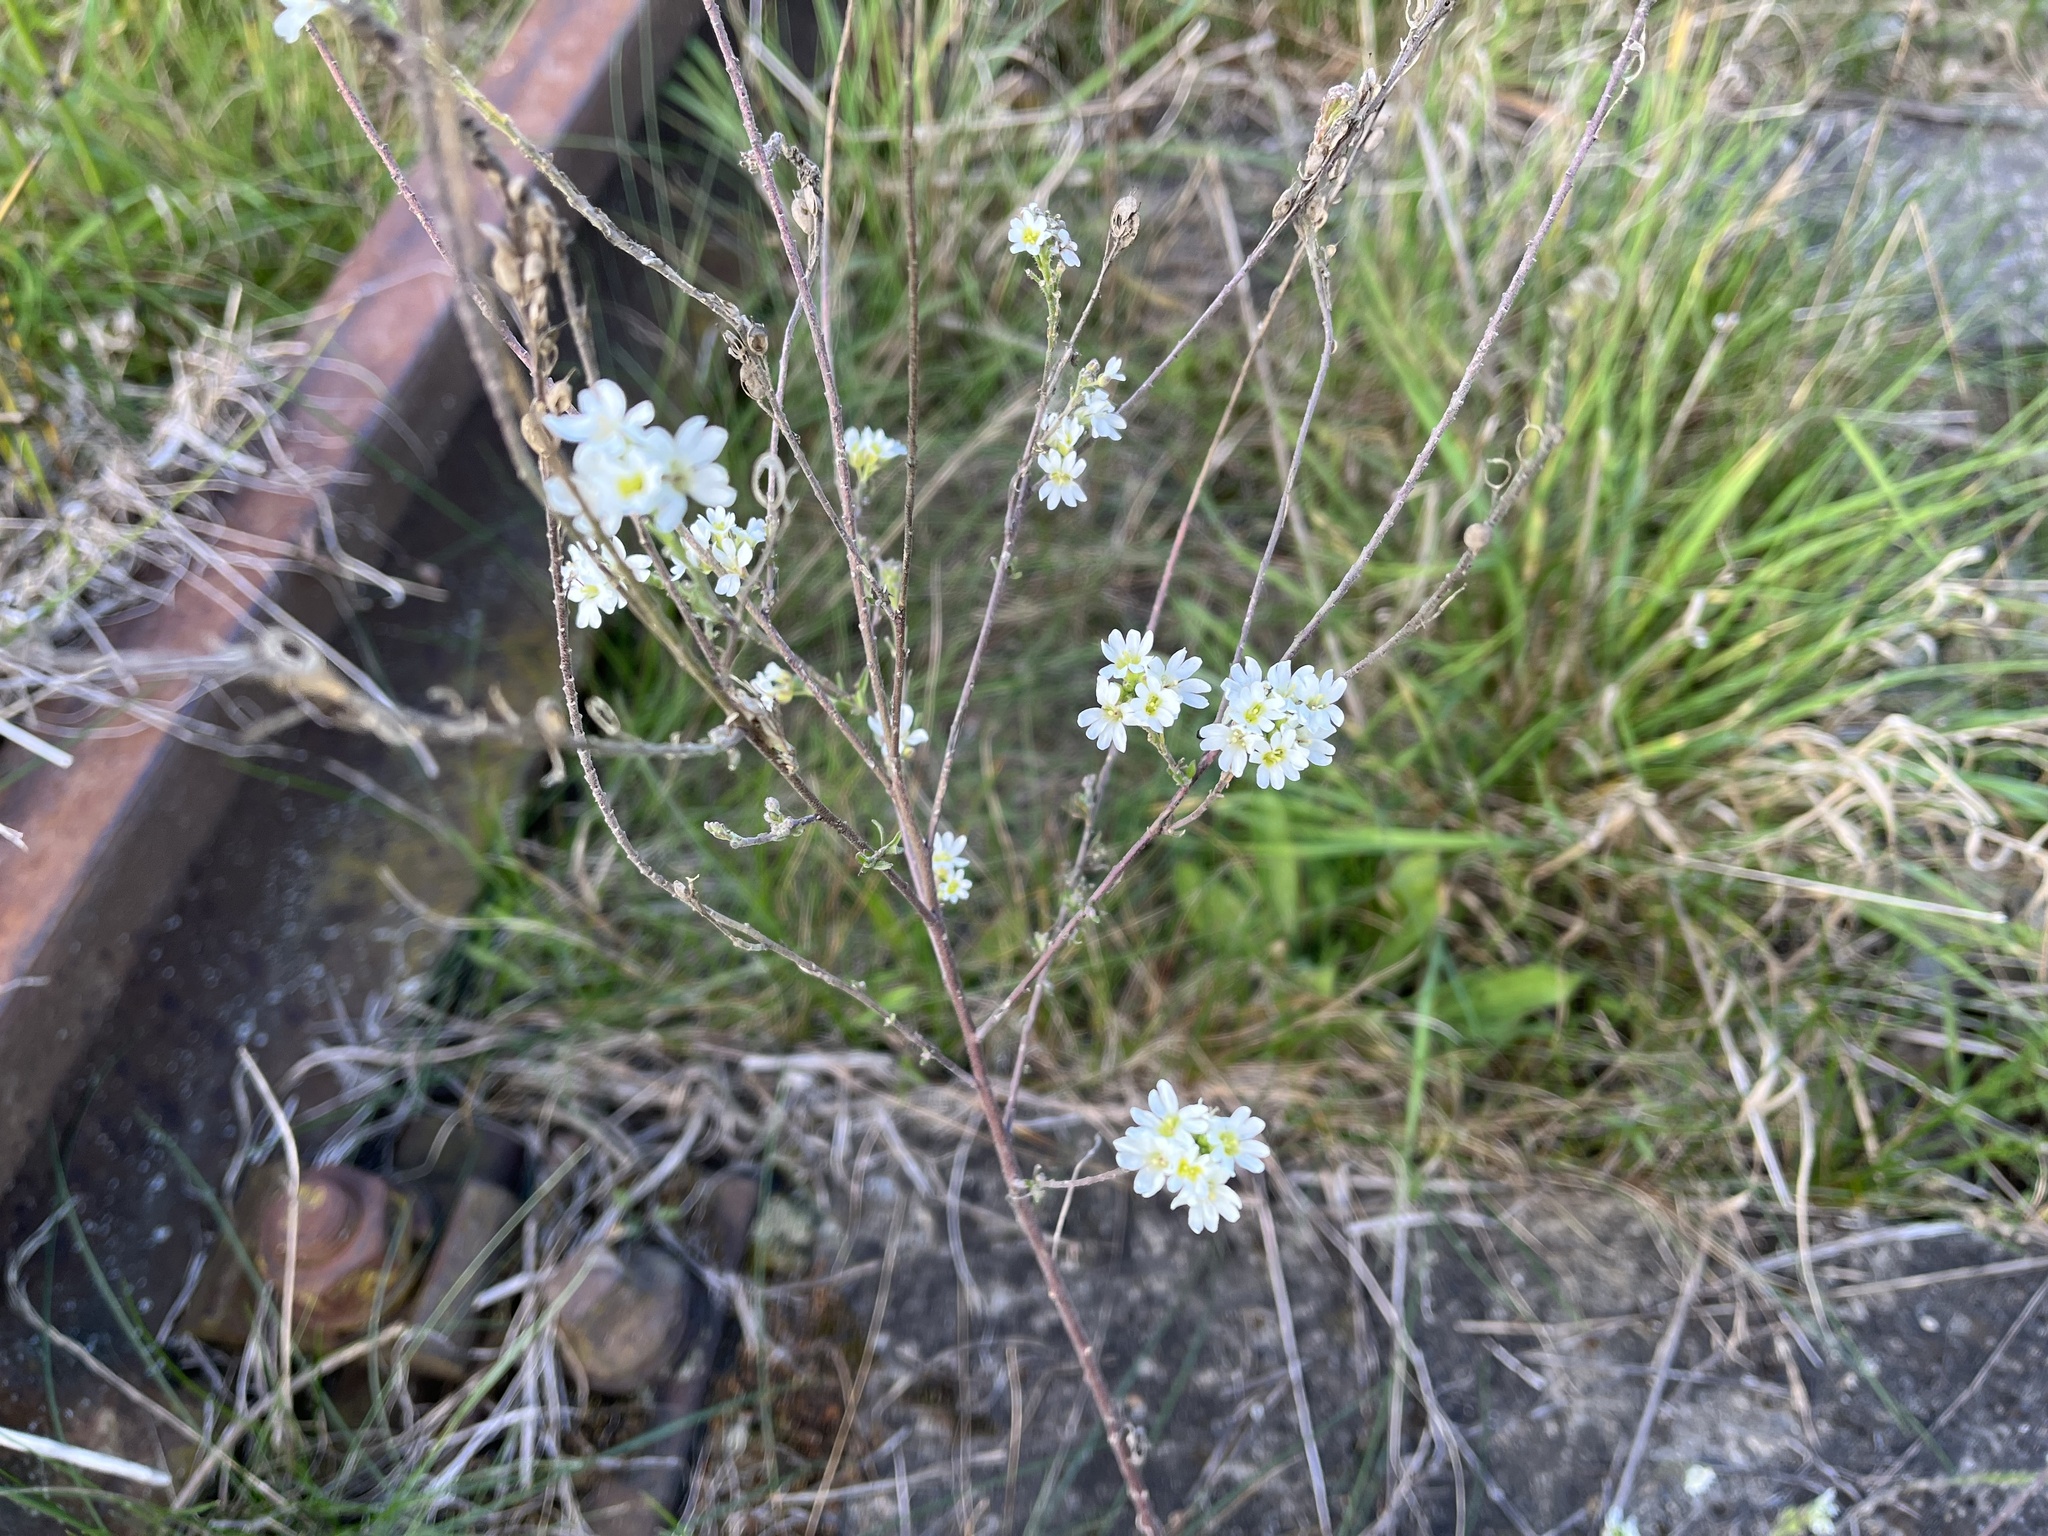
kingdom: Plantae
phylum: Tracheophyta
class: Magnoliopsida
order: Brassicales
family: Brassicaceae
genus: Berteroa
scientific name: Berteroa incana
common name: Hoary alison
